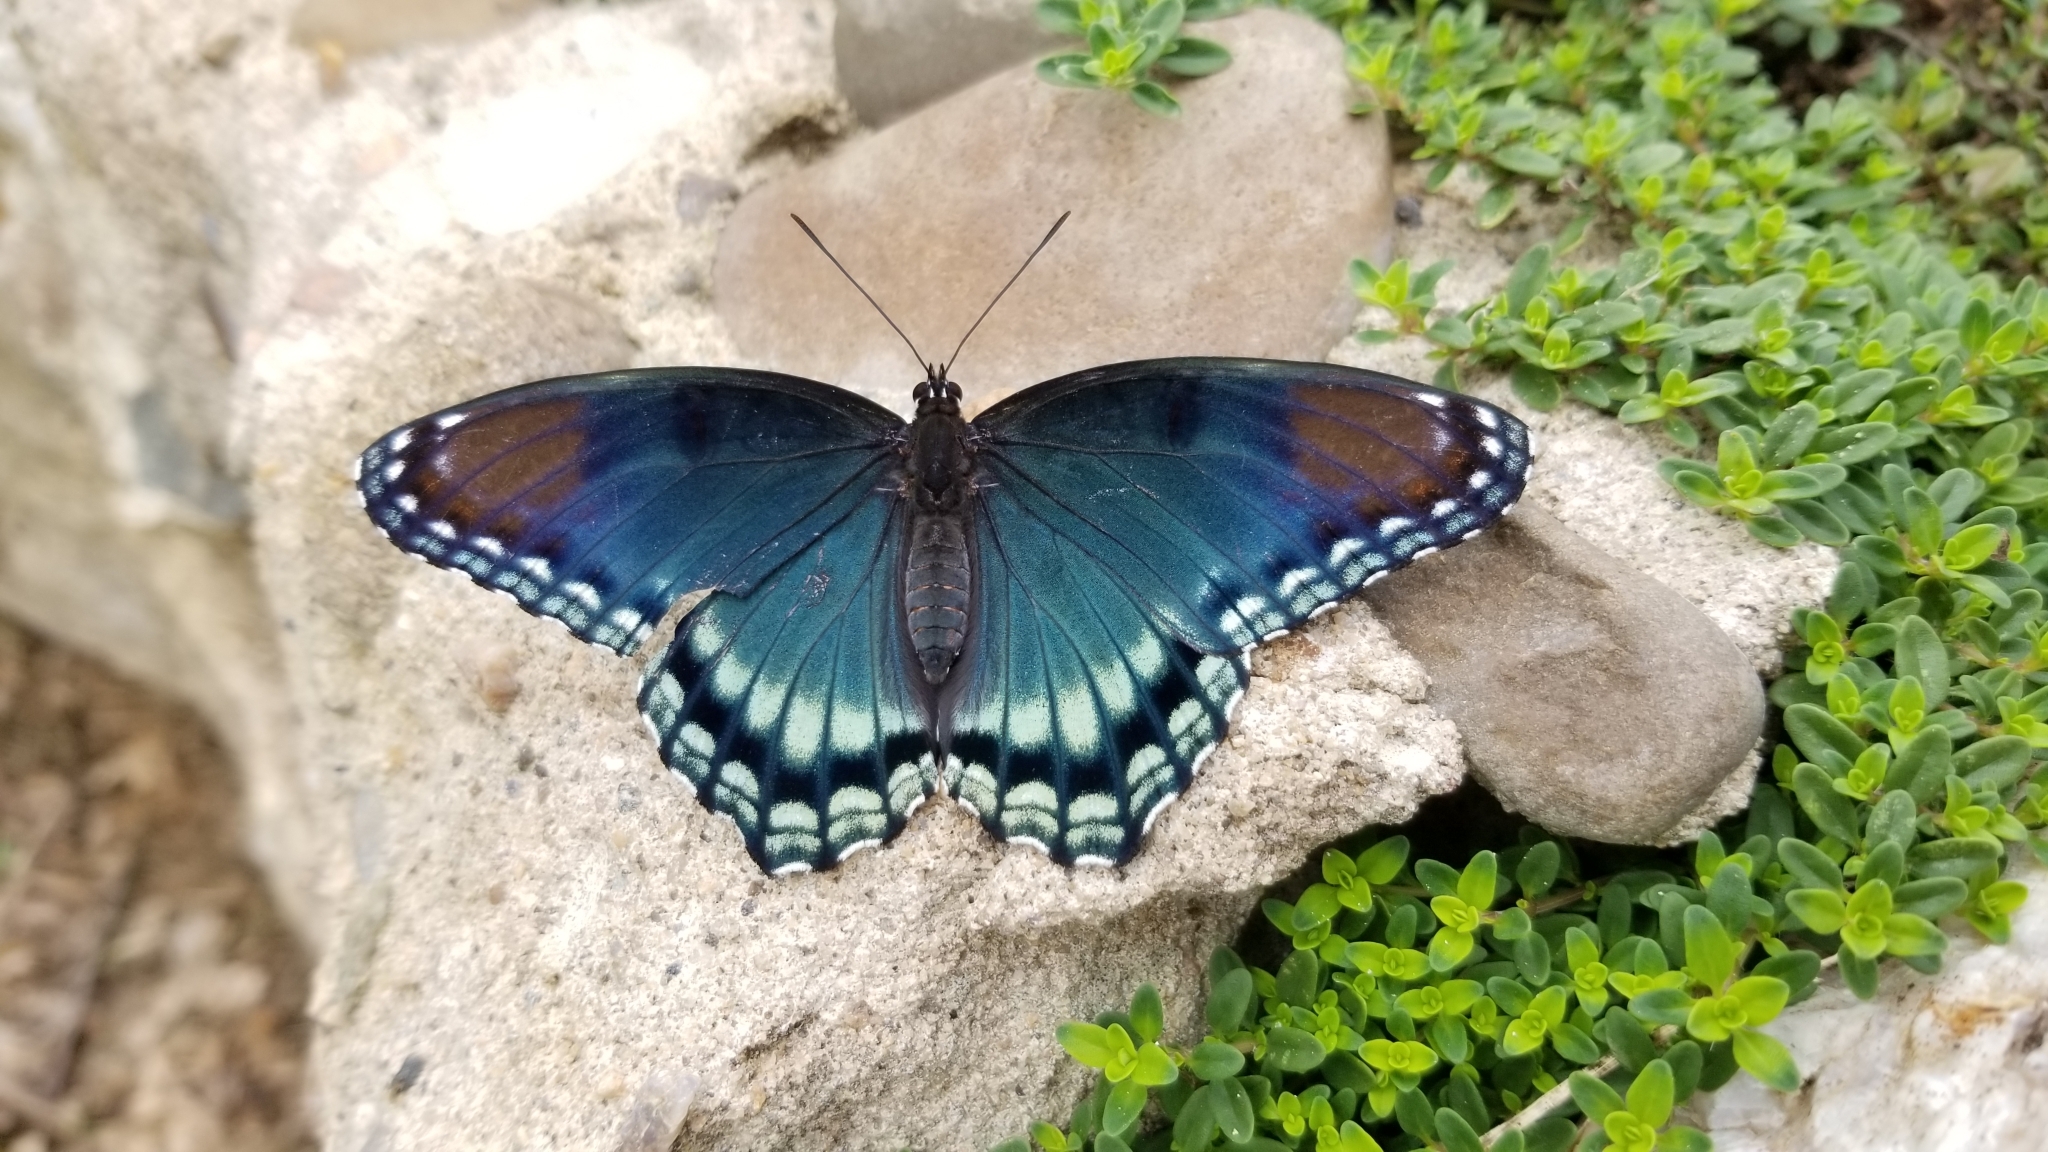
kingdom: Animalia
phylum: Arthropoda
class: Insecta
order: Lepidoptera
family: Nymphalidae
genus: Limenitis
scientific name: Limenitis arthemis
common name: Red-spotted admiral
